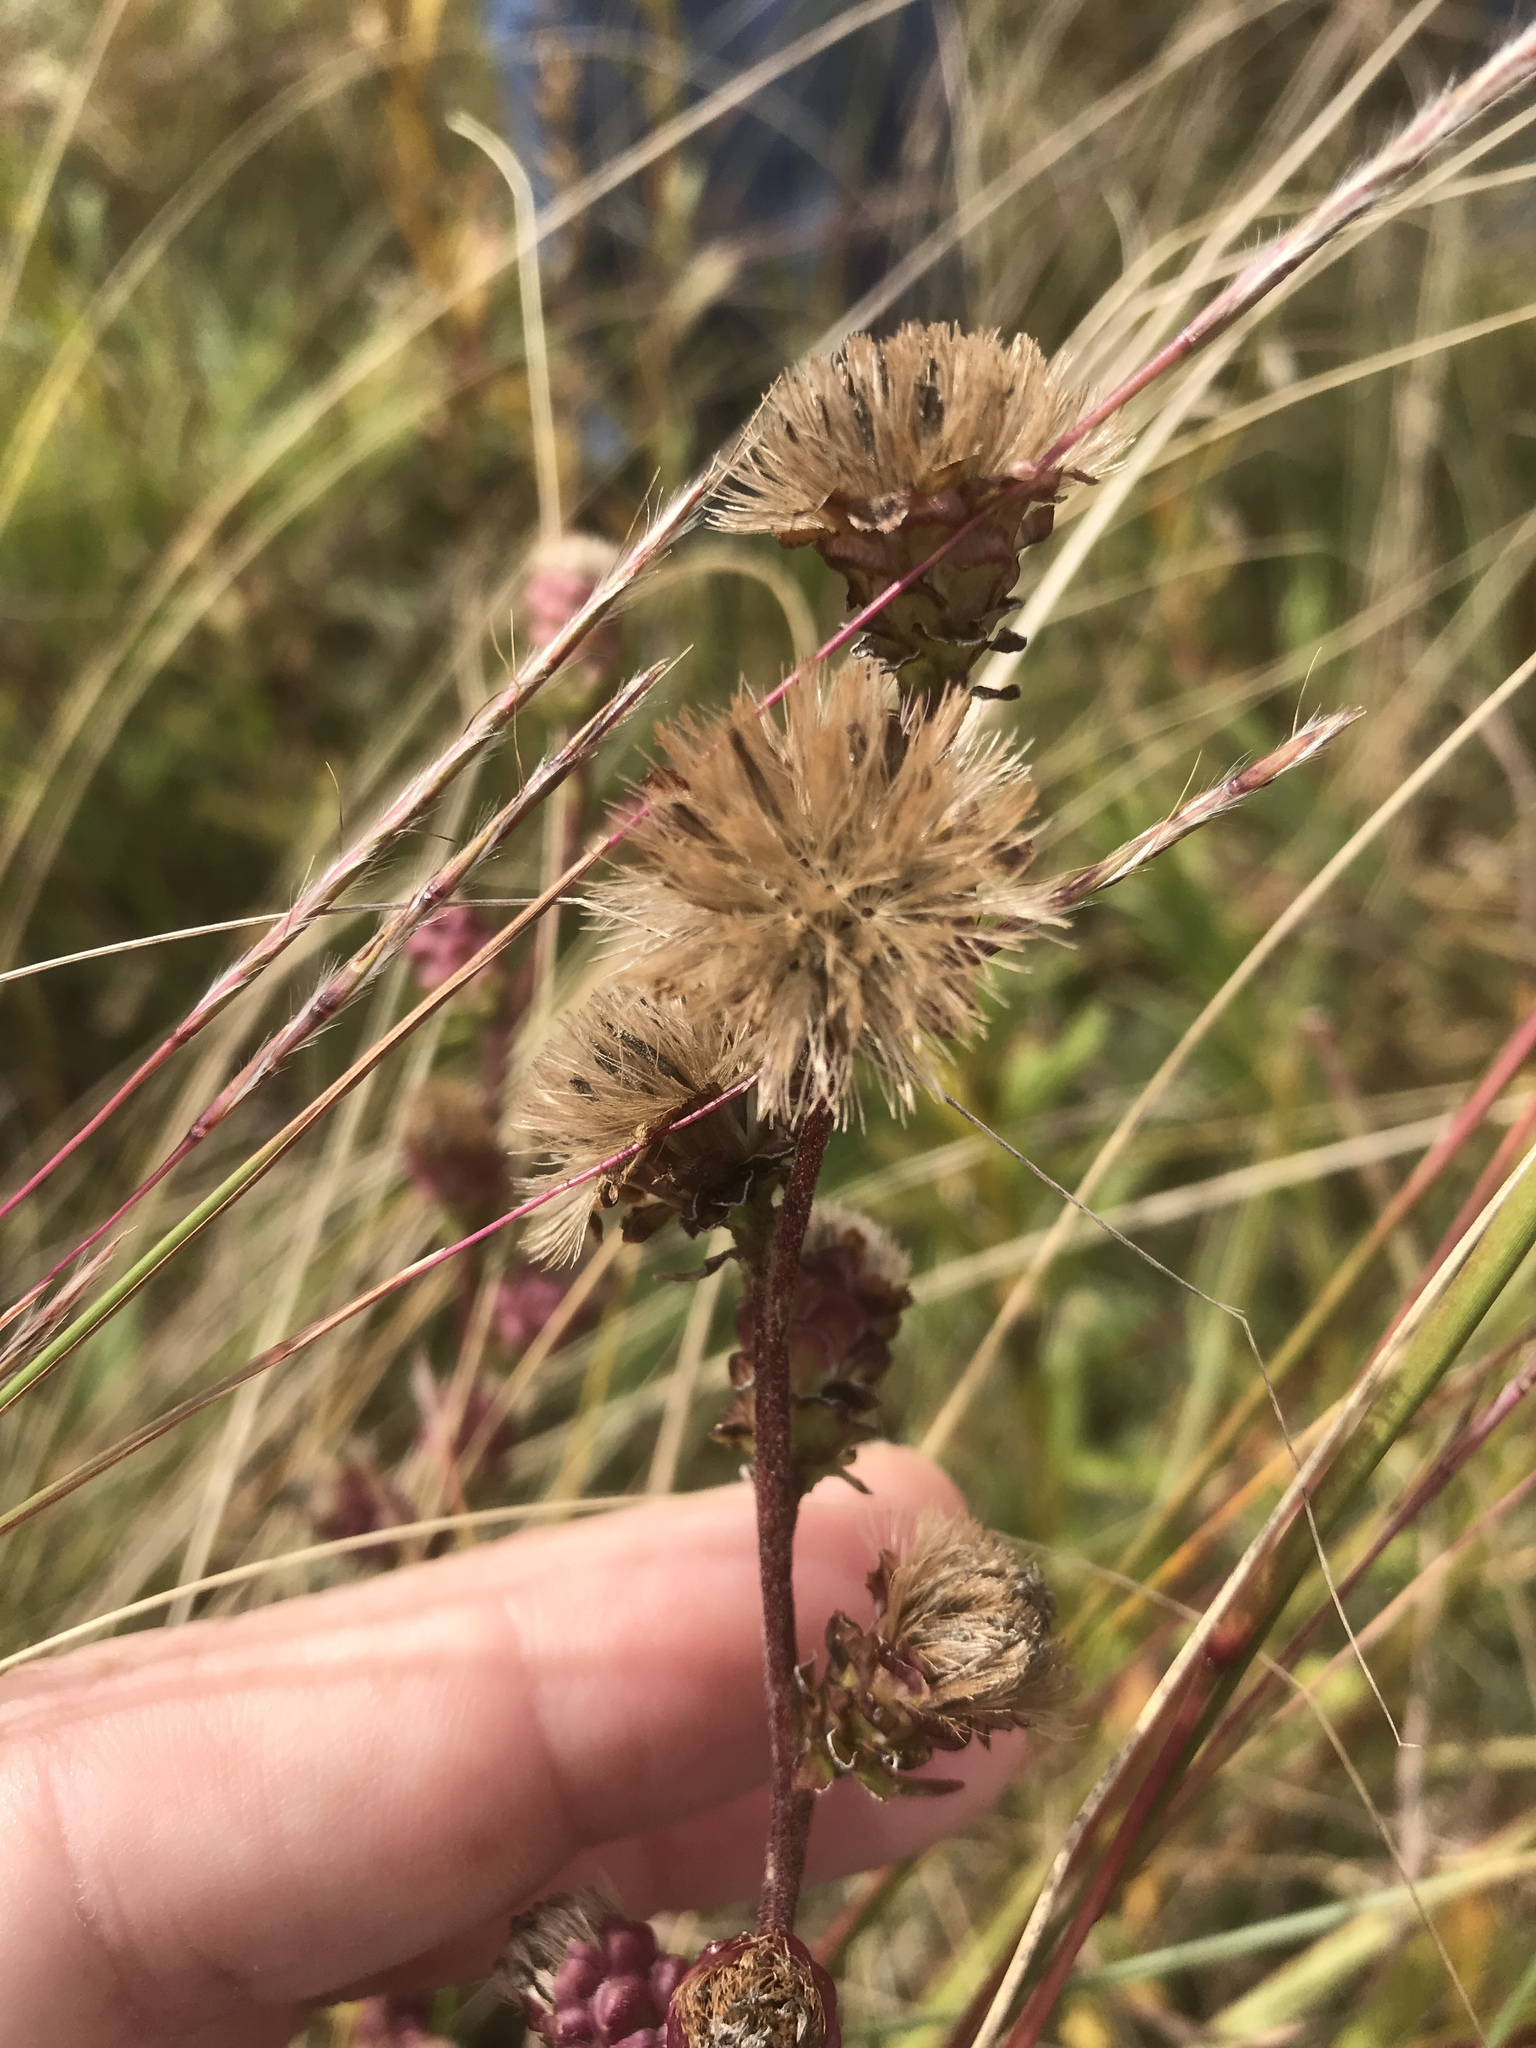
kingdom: Plantae
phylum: Tracheophyta
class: Magnoliopsida
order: Asterales
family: Asteraceae
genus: Liatris
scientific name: Liatris aspera
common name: Lacerate blazing-star
